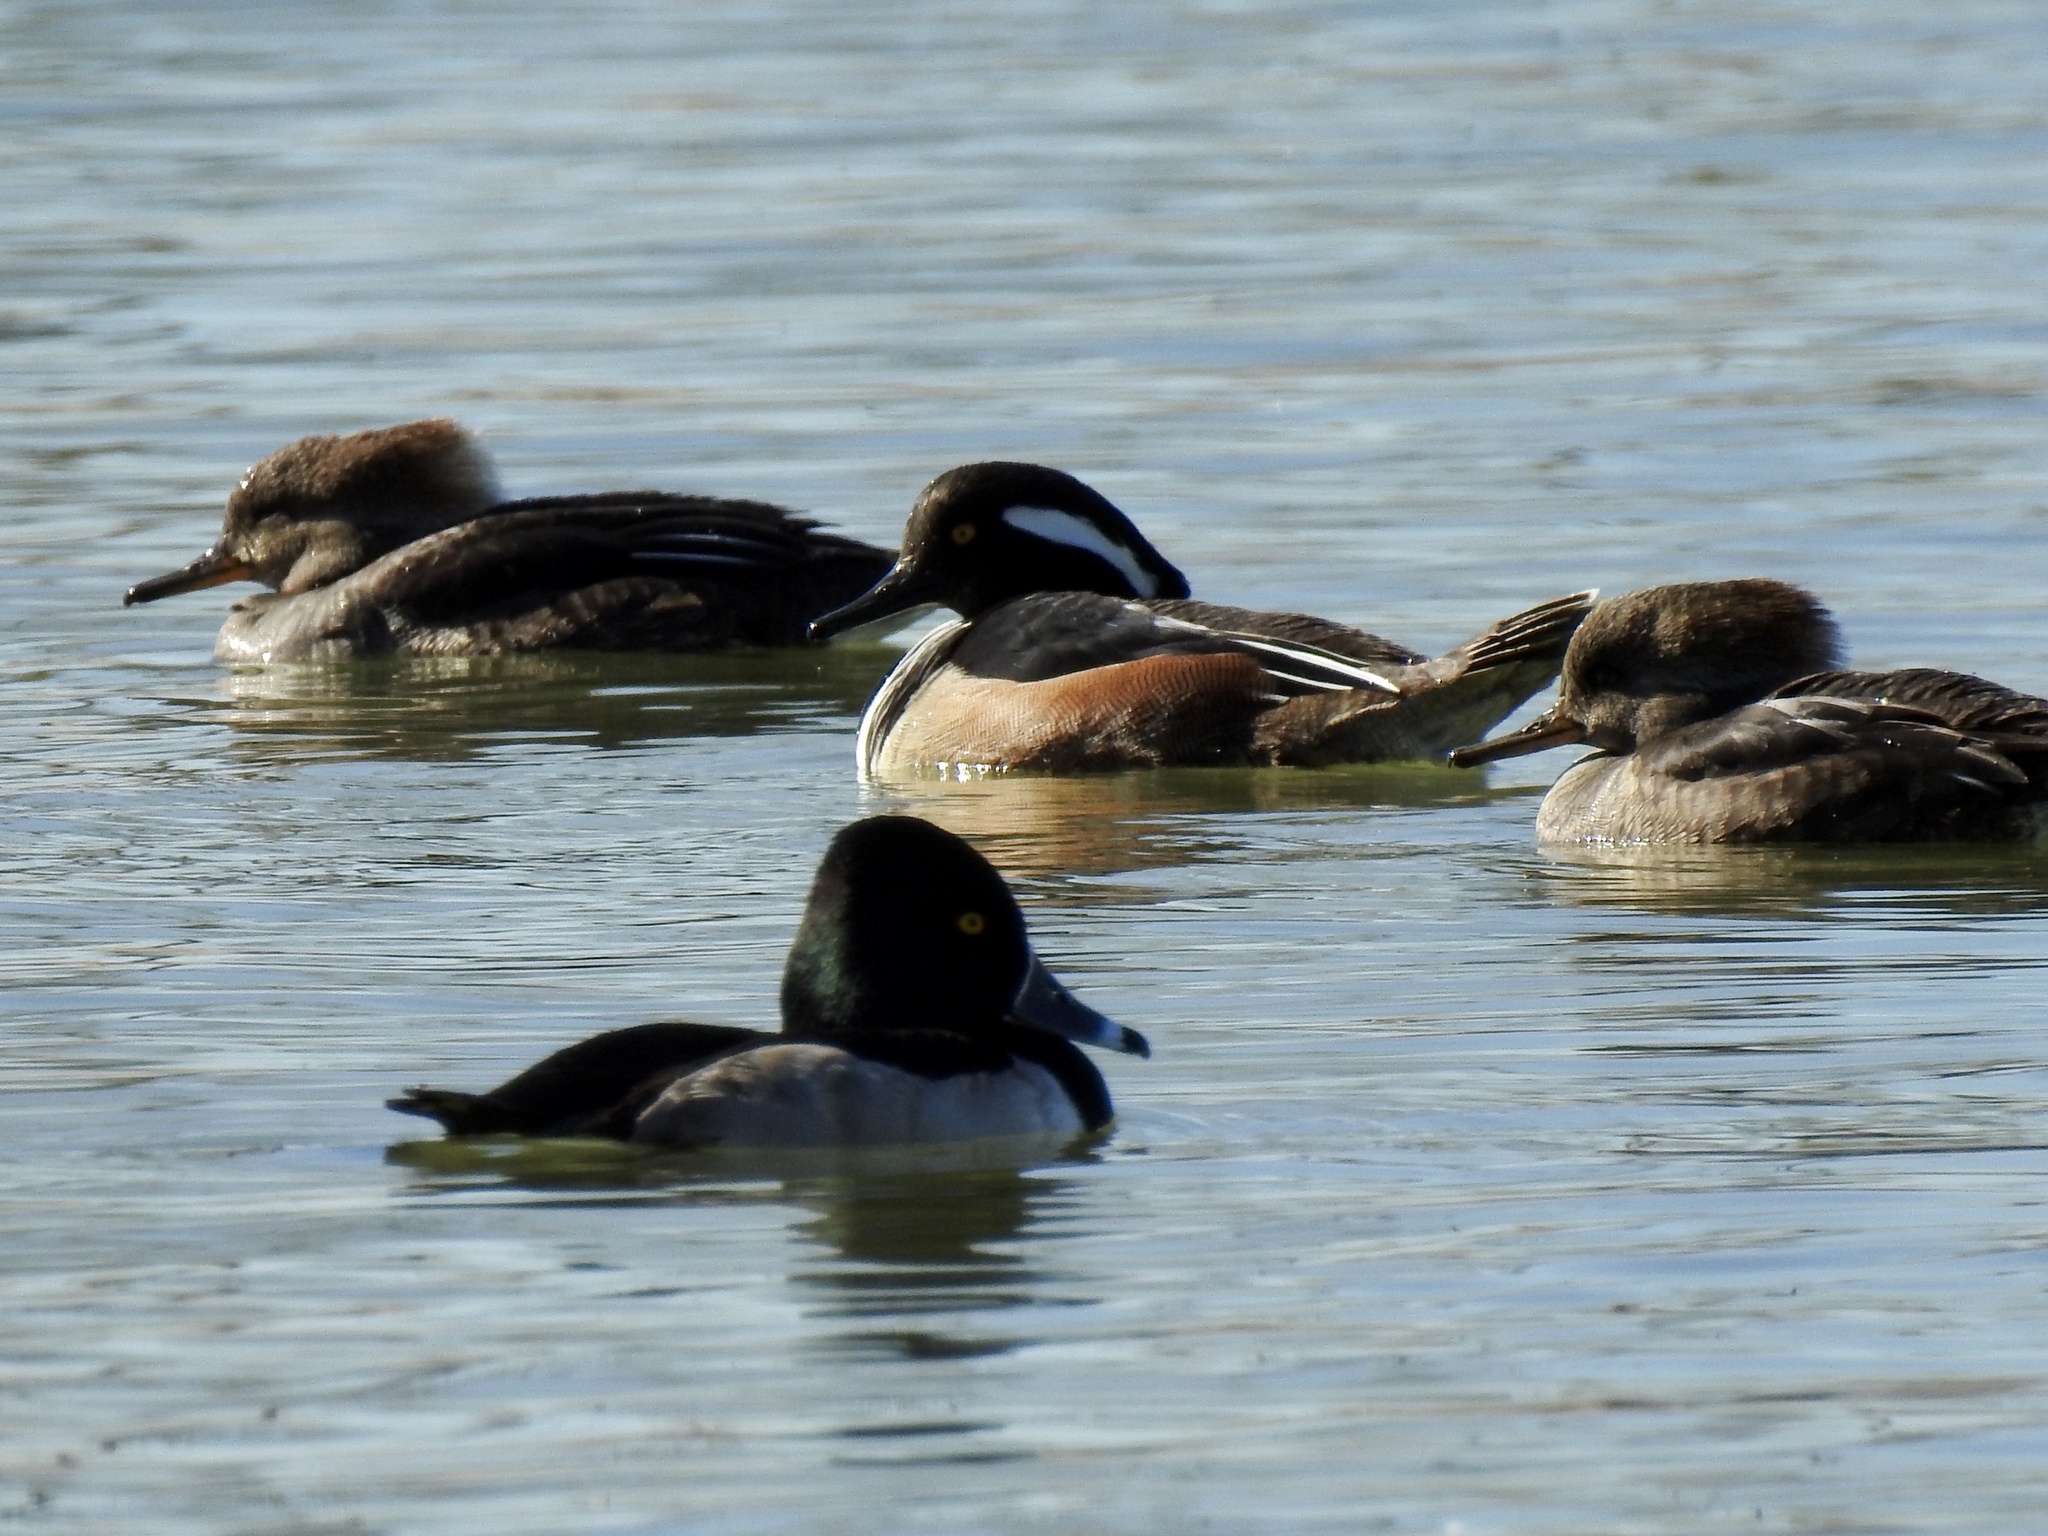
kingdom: Animalia
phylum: Chordata
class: Aves
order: Anseriformes
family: Anatidae
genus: Lophodytes
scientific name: Lophodytes cucullatus
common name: Hooded merganser
